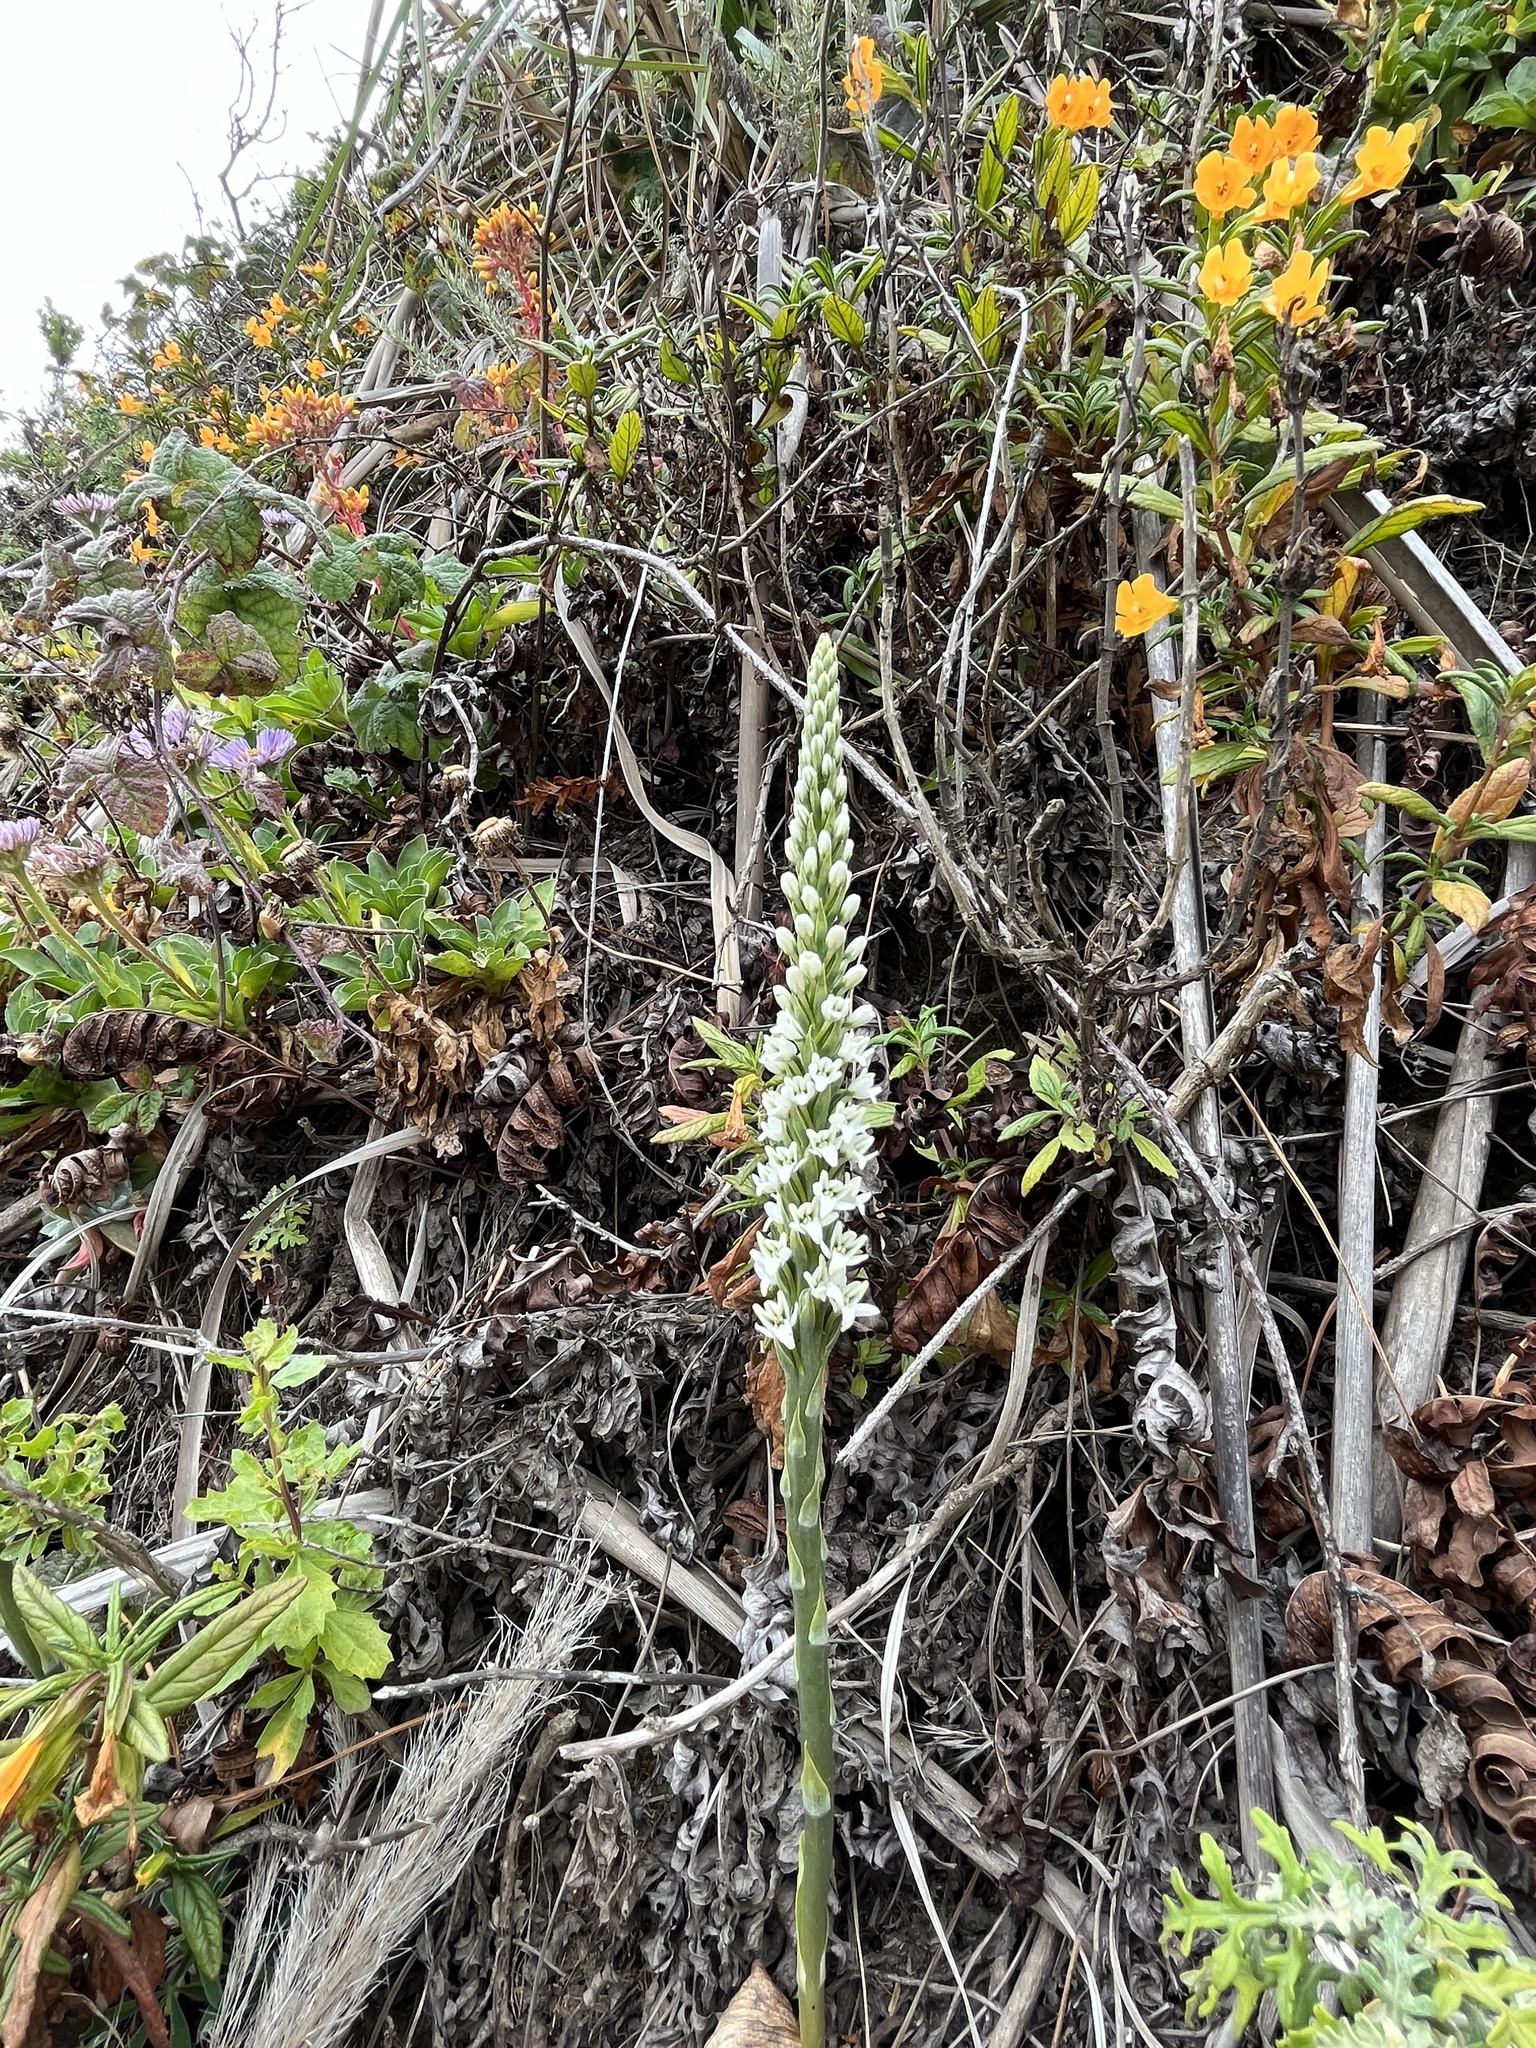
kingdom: Plantae
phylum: Tracheophyta
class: Liliopsida
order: Asparagales
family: Orchidaceae
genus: Platanthera
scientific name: Platanthera elegans
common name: Coast piperia
